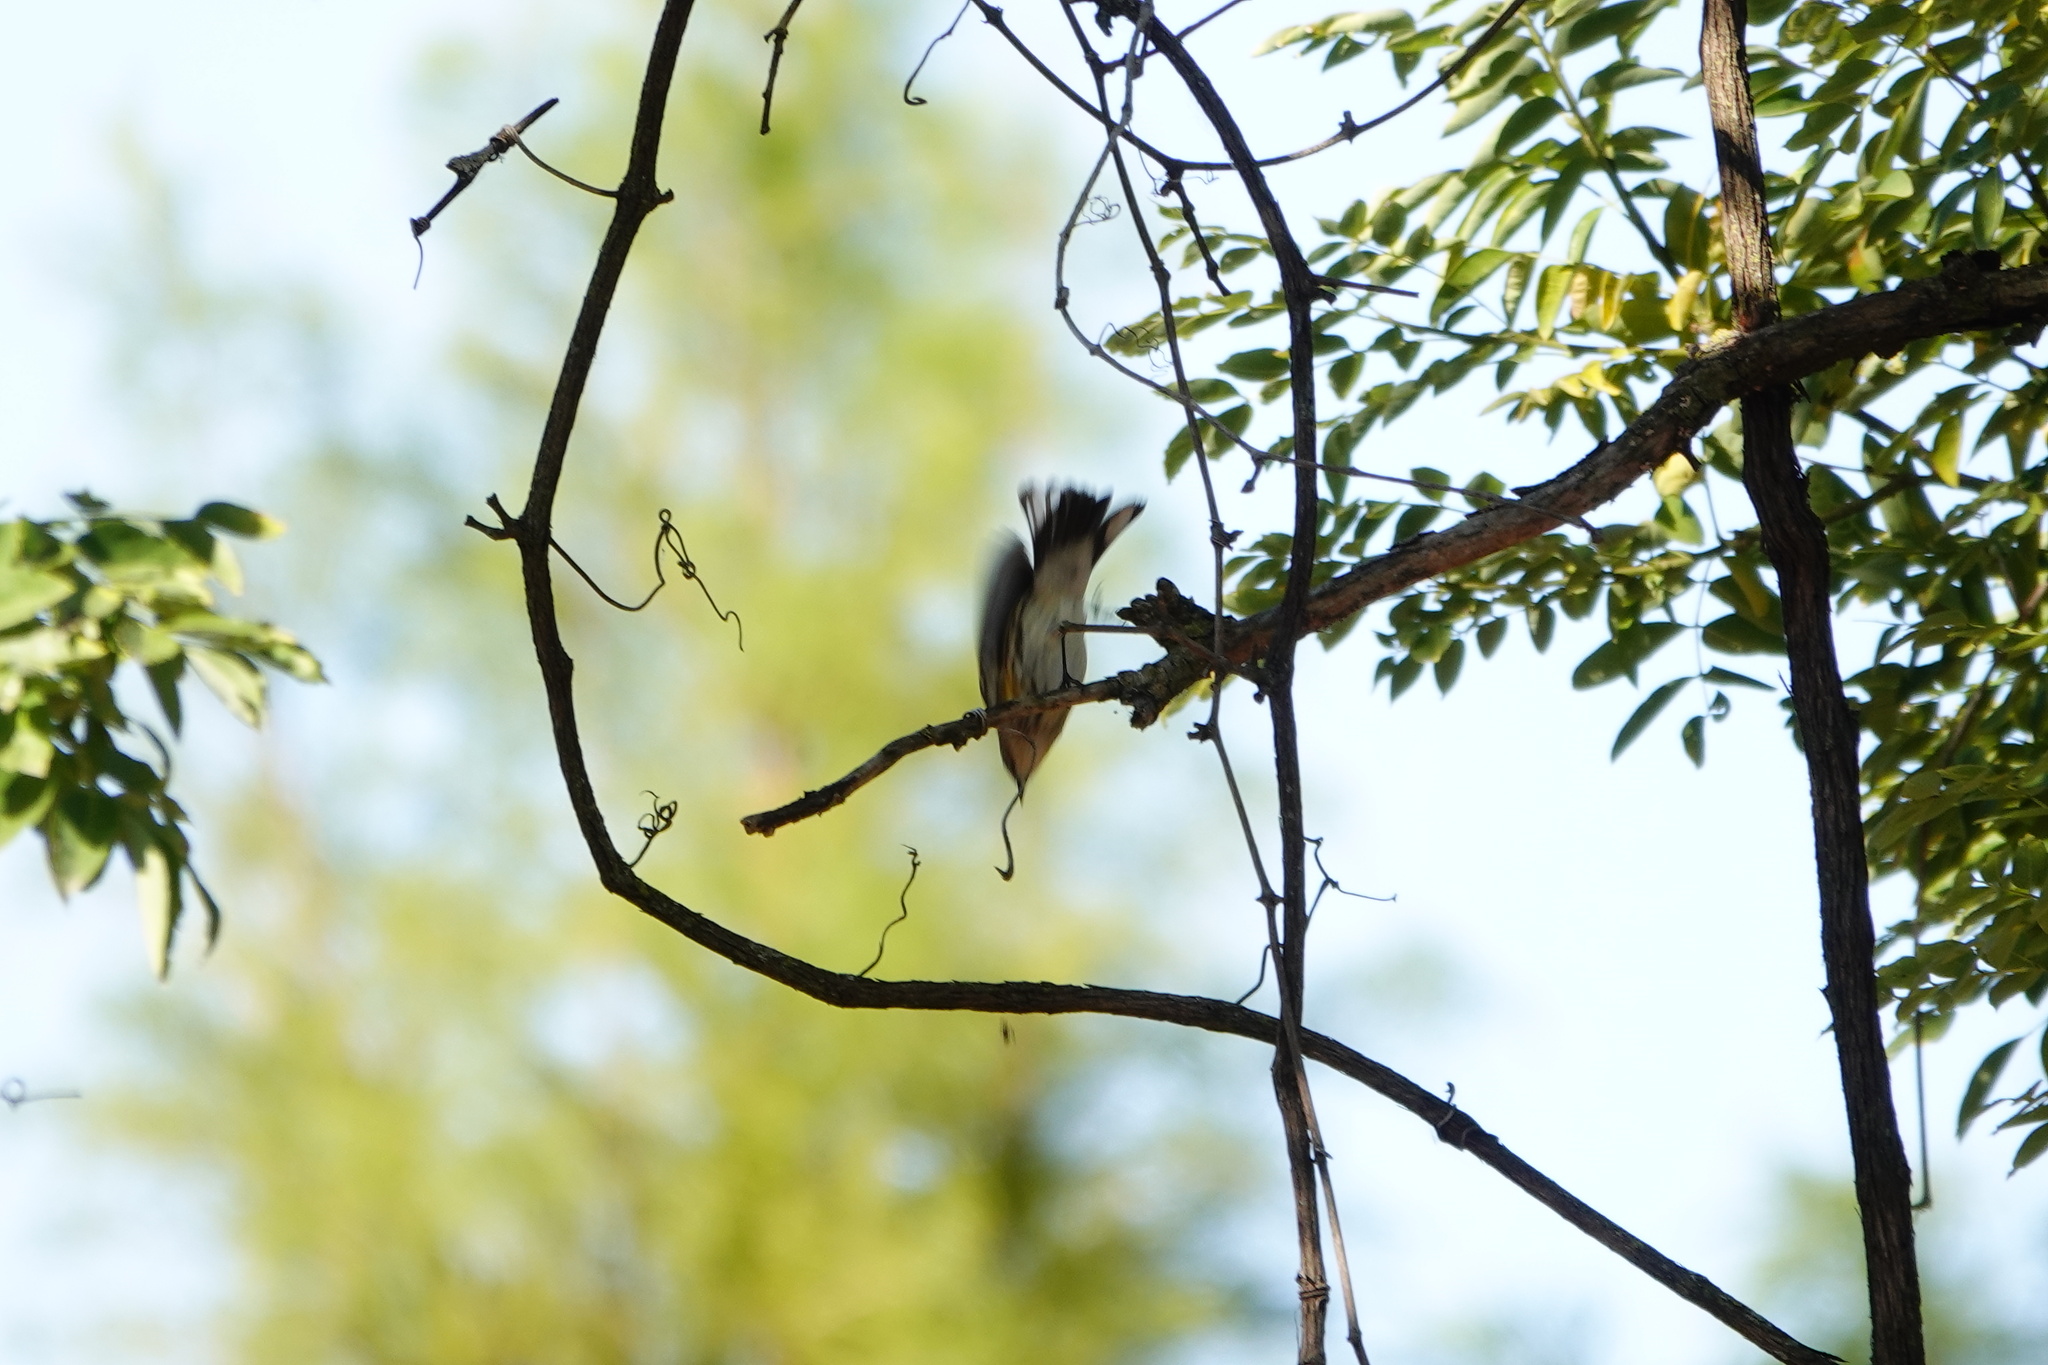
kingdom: Animalia
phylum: Chordata
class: Aves
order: Passeriformes
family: Parulidae
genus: Setophaga
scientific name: Setophaga coronata
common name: Myrtle warbler
